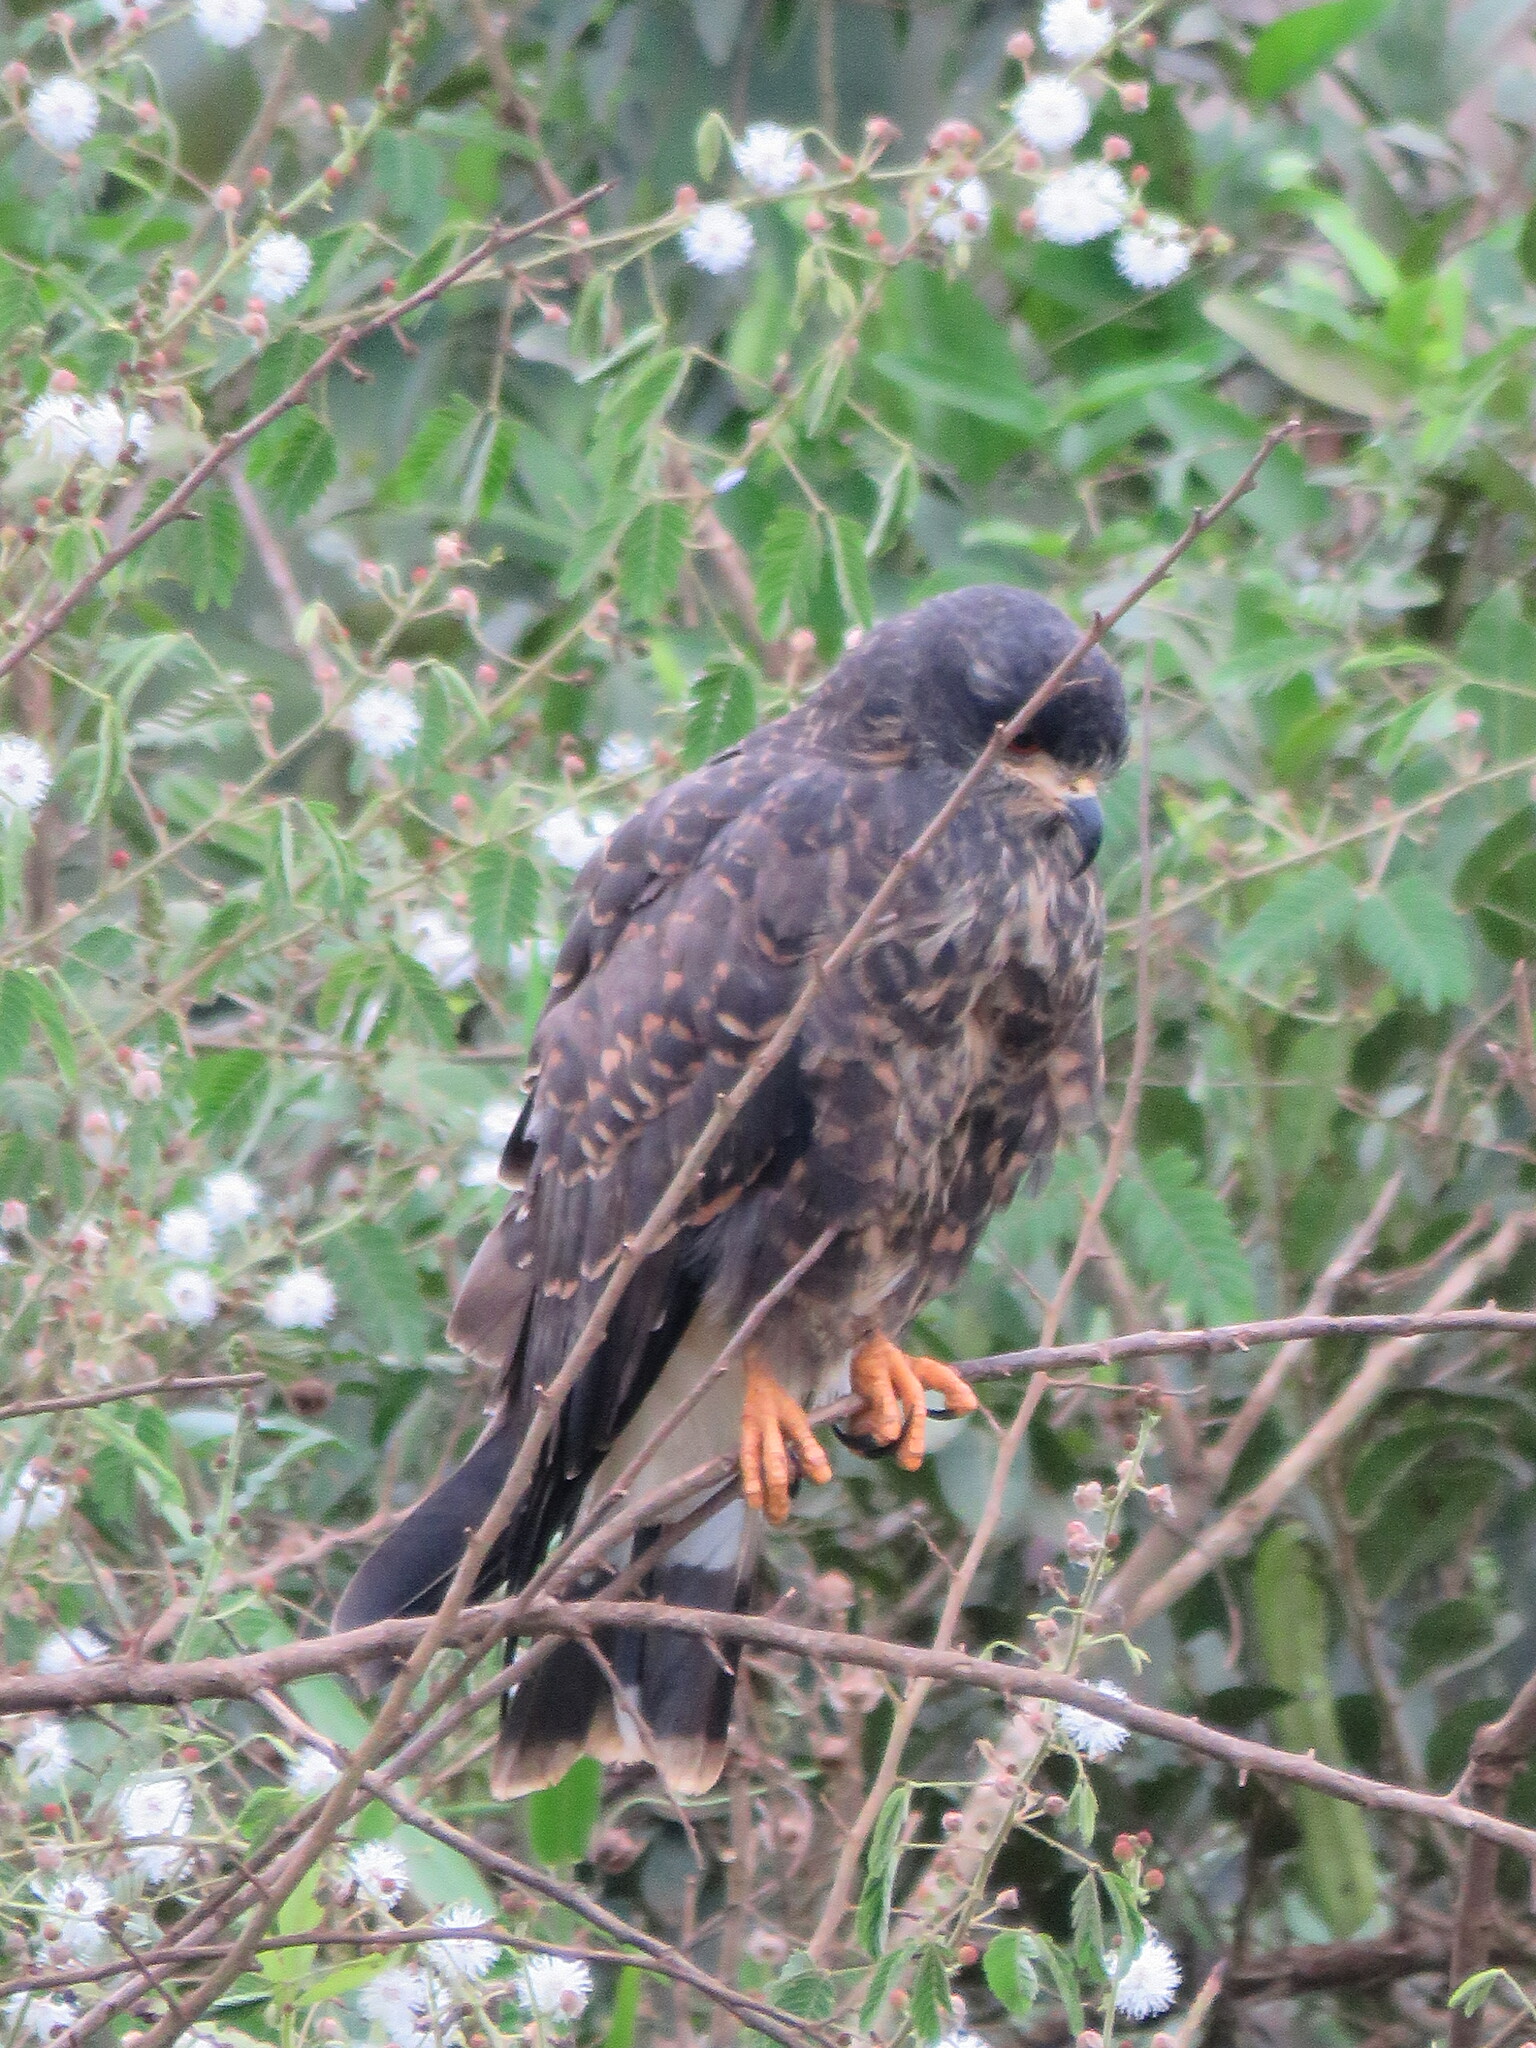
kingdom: Animalia
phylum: Chordata
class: Aves
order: Accipitriformes
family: Accipitridae
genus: Rostrhamus
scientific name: Rostrhamus sociabilis
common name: Snail kite
